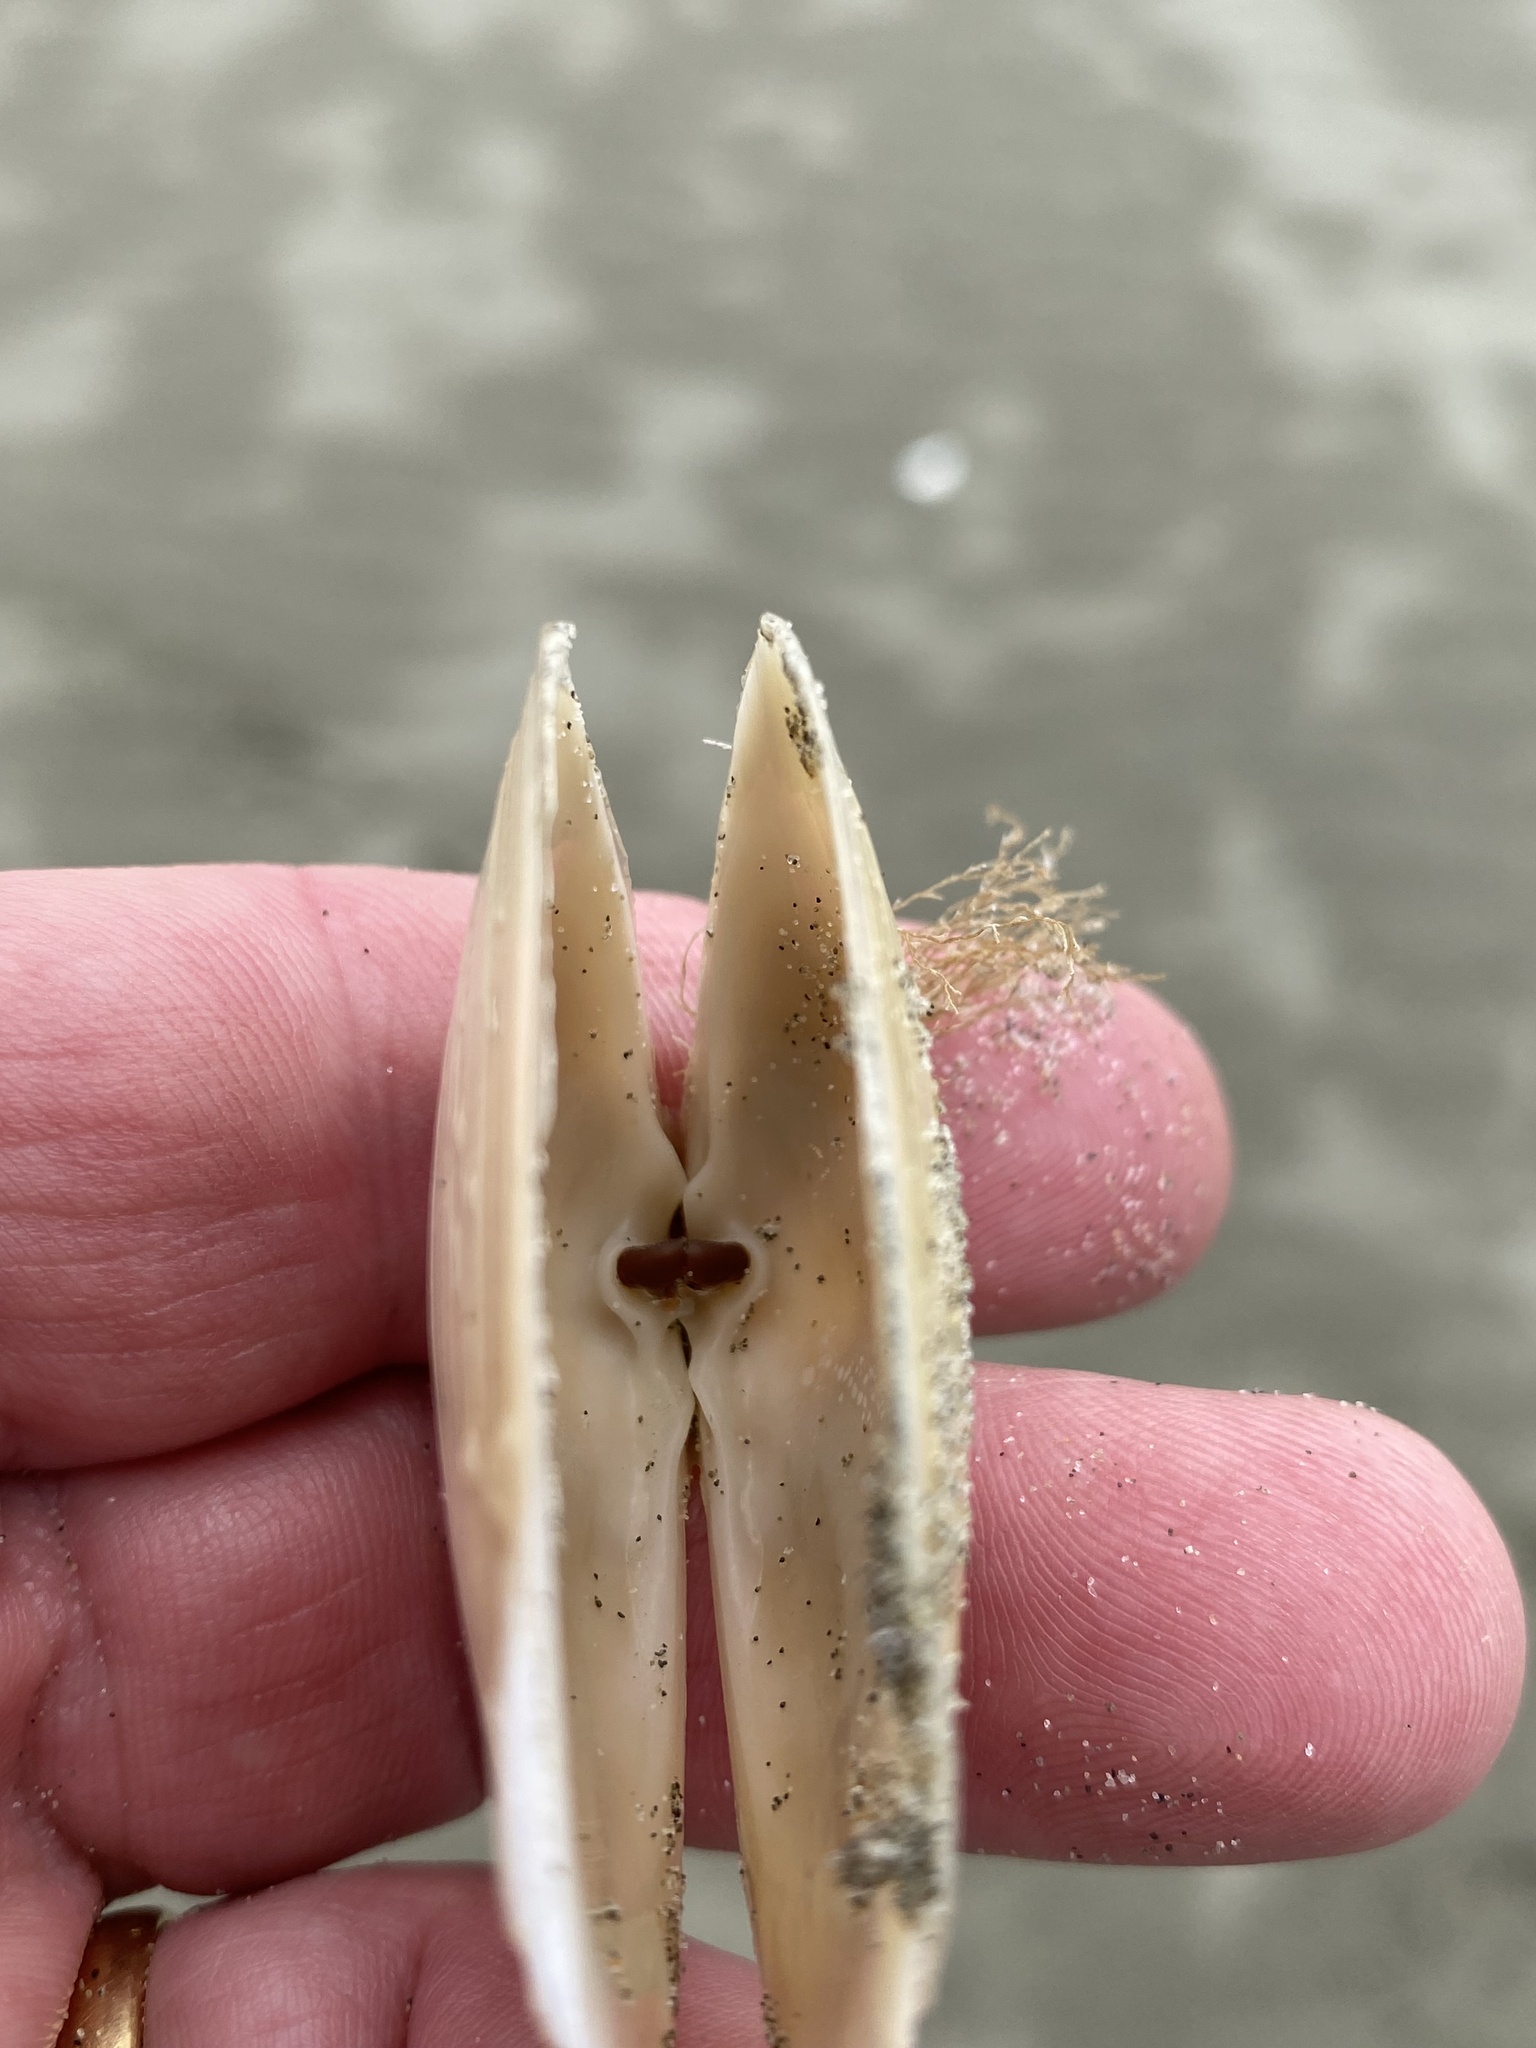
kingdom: Animalia
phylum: Mollusca
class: Bivalvia
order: Venerida
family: Mesodesmatidae
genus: Paphies
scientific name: Paphies donacina
